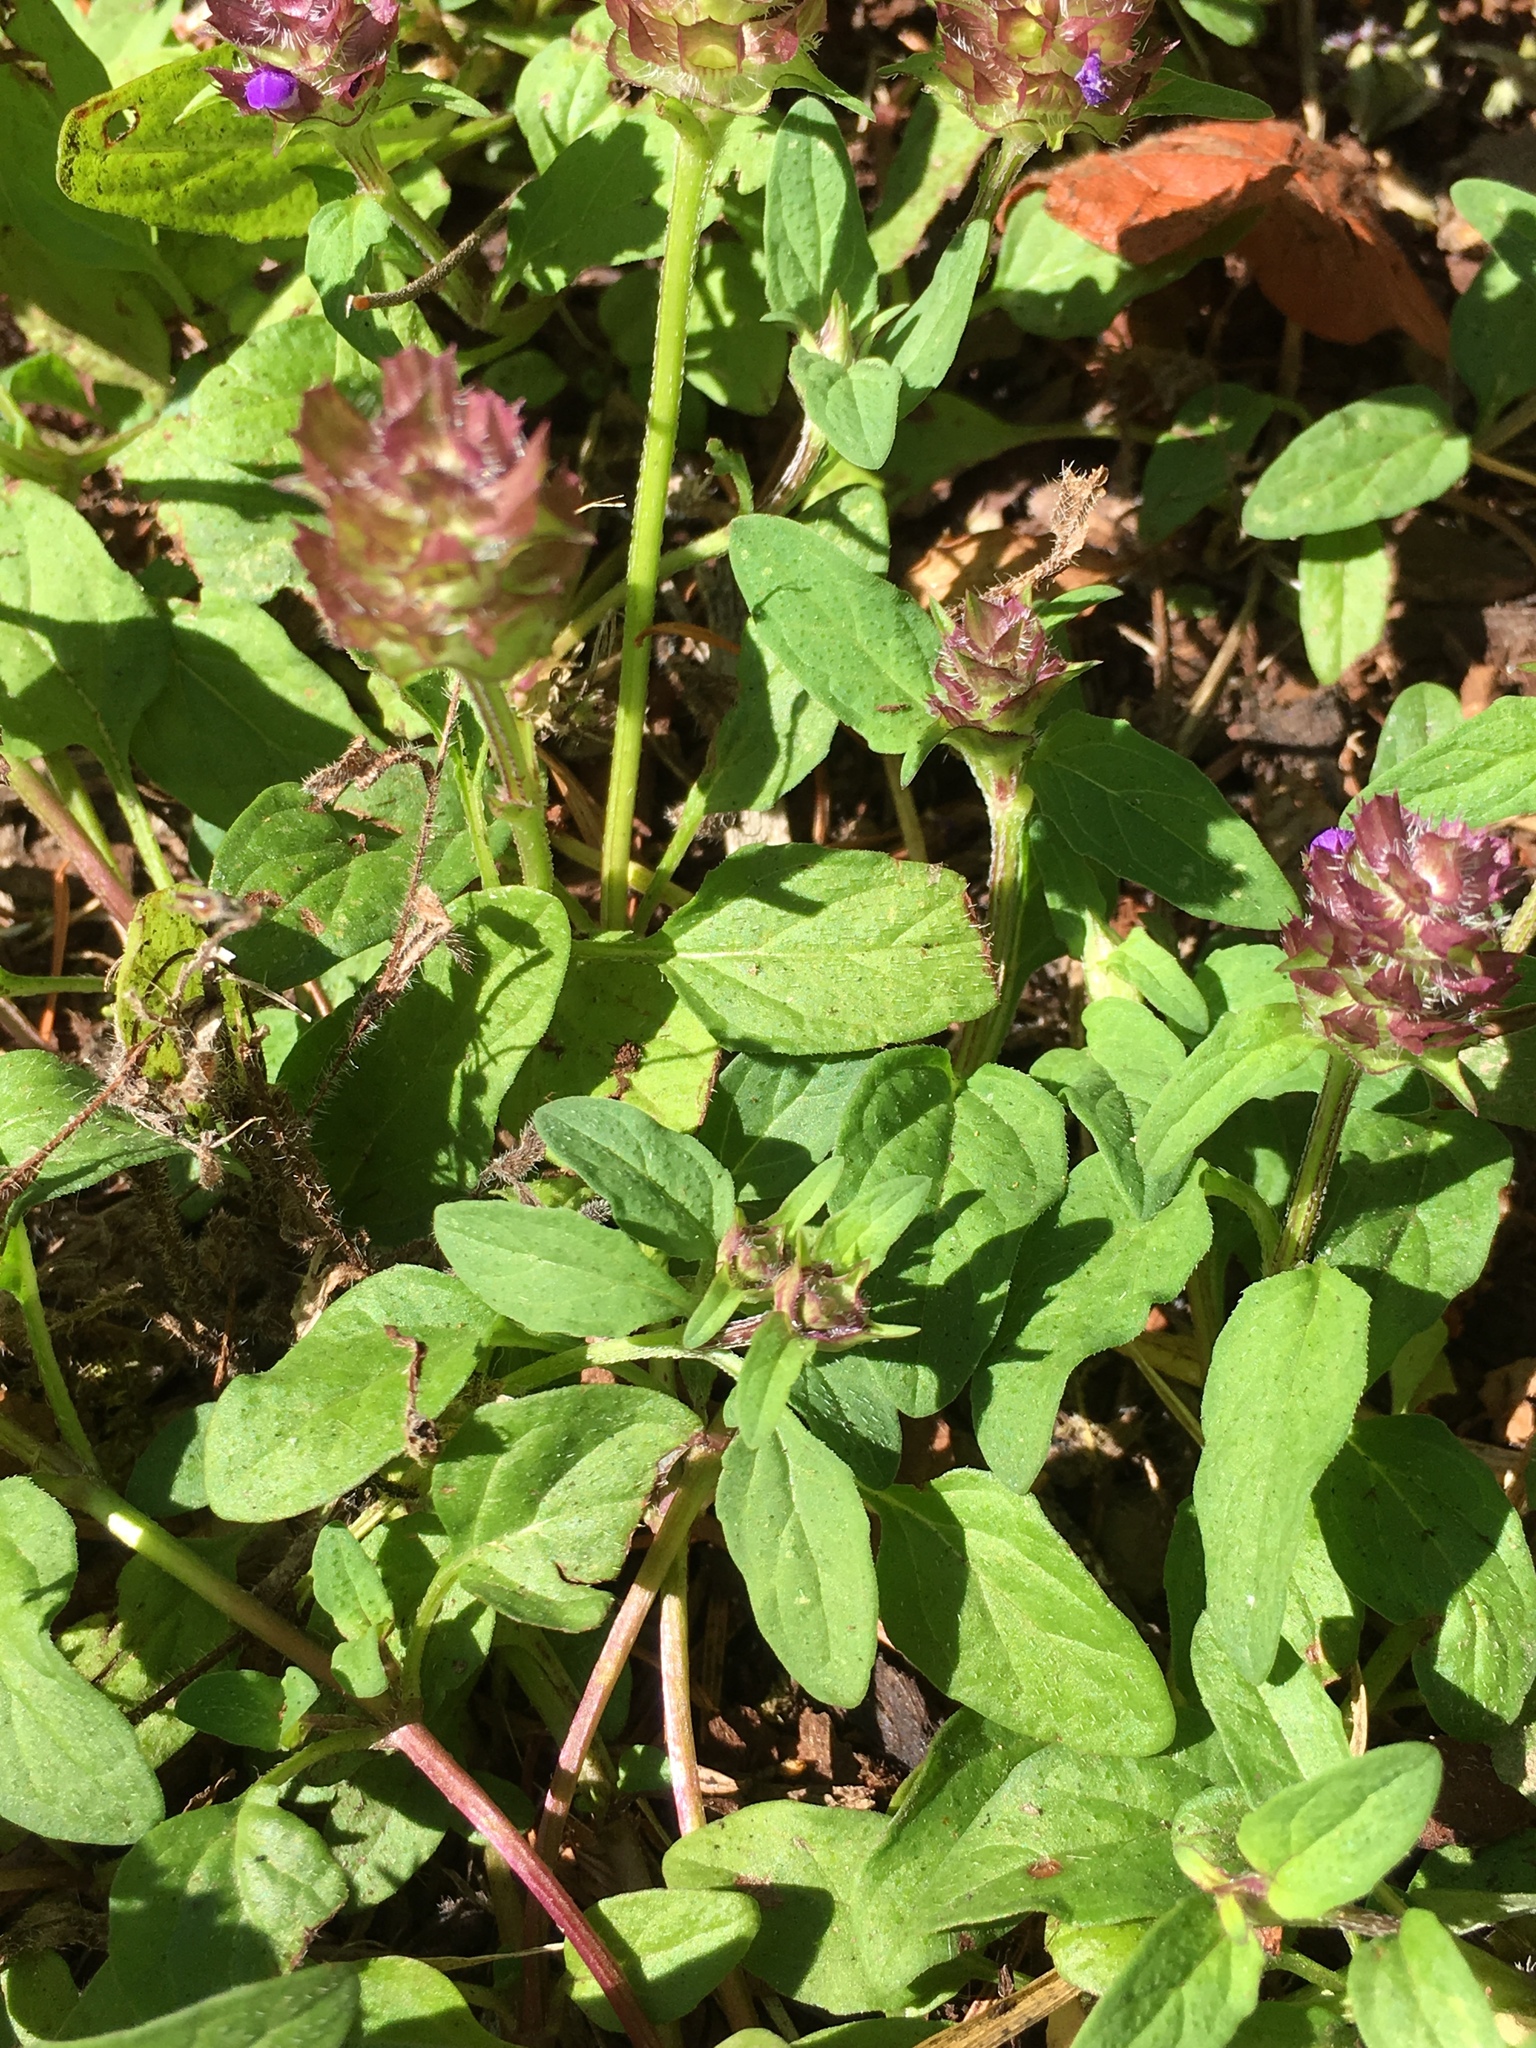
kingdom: Plantae
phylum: Tracheophyta
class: Magnoliopsida
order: Lamiales
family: Lamiaceae
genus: Prunella
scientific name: Prunella vulgaris
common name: Heal-all
